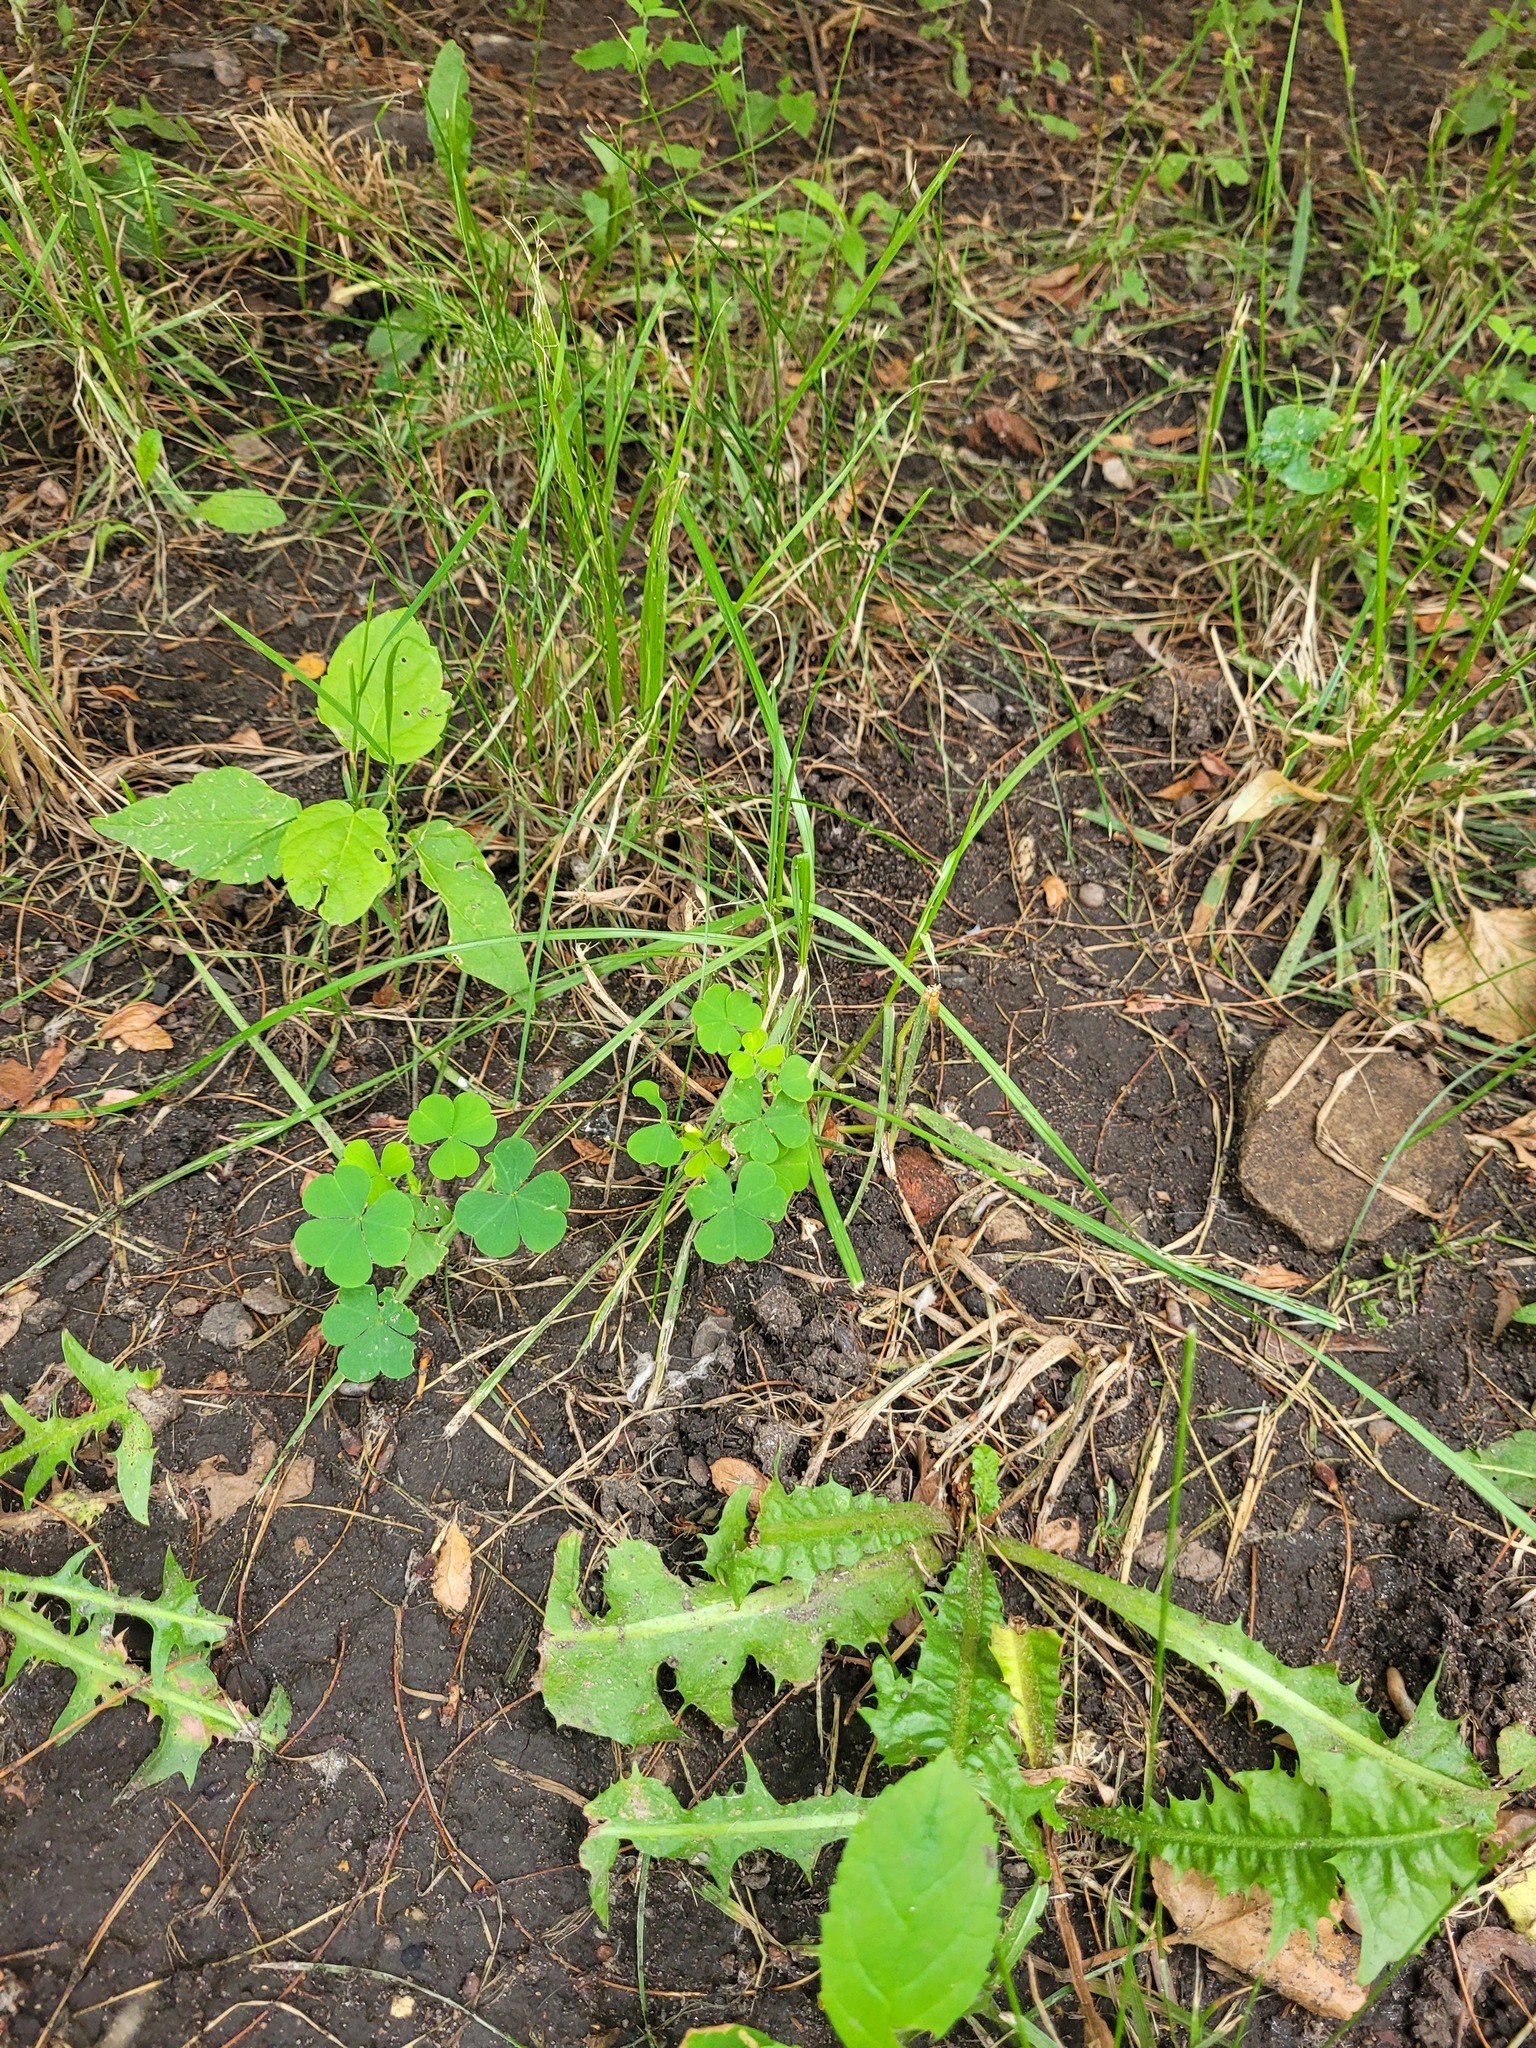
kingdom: Plantae
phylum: Tracheophyta
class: Magnoliopsida
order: Oxalidales
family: Oxalidaceae
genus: Oxalis
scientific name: Oxalis stricta
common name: Upright yellow-sorrel
